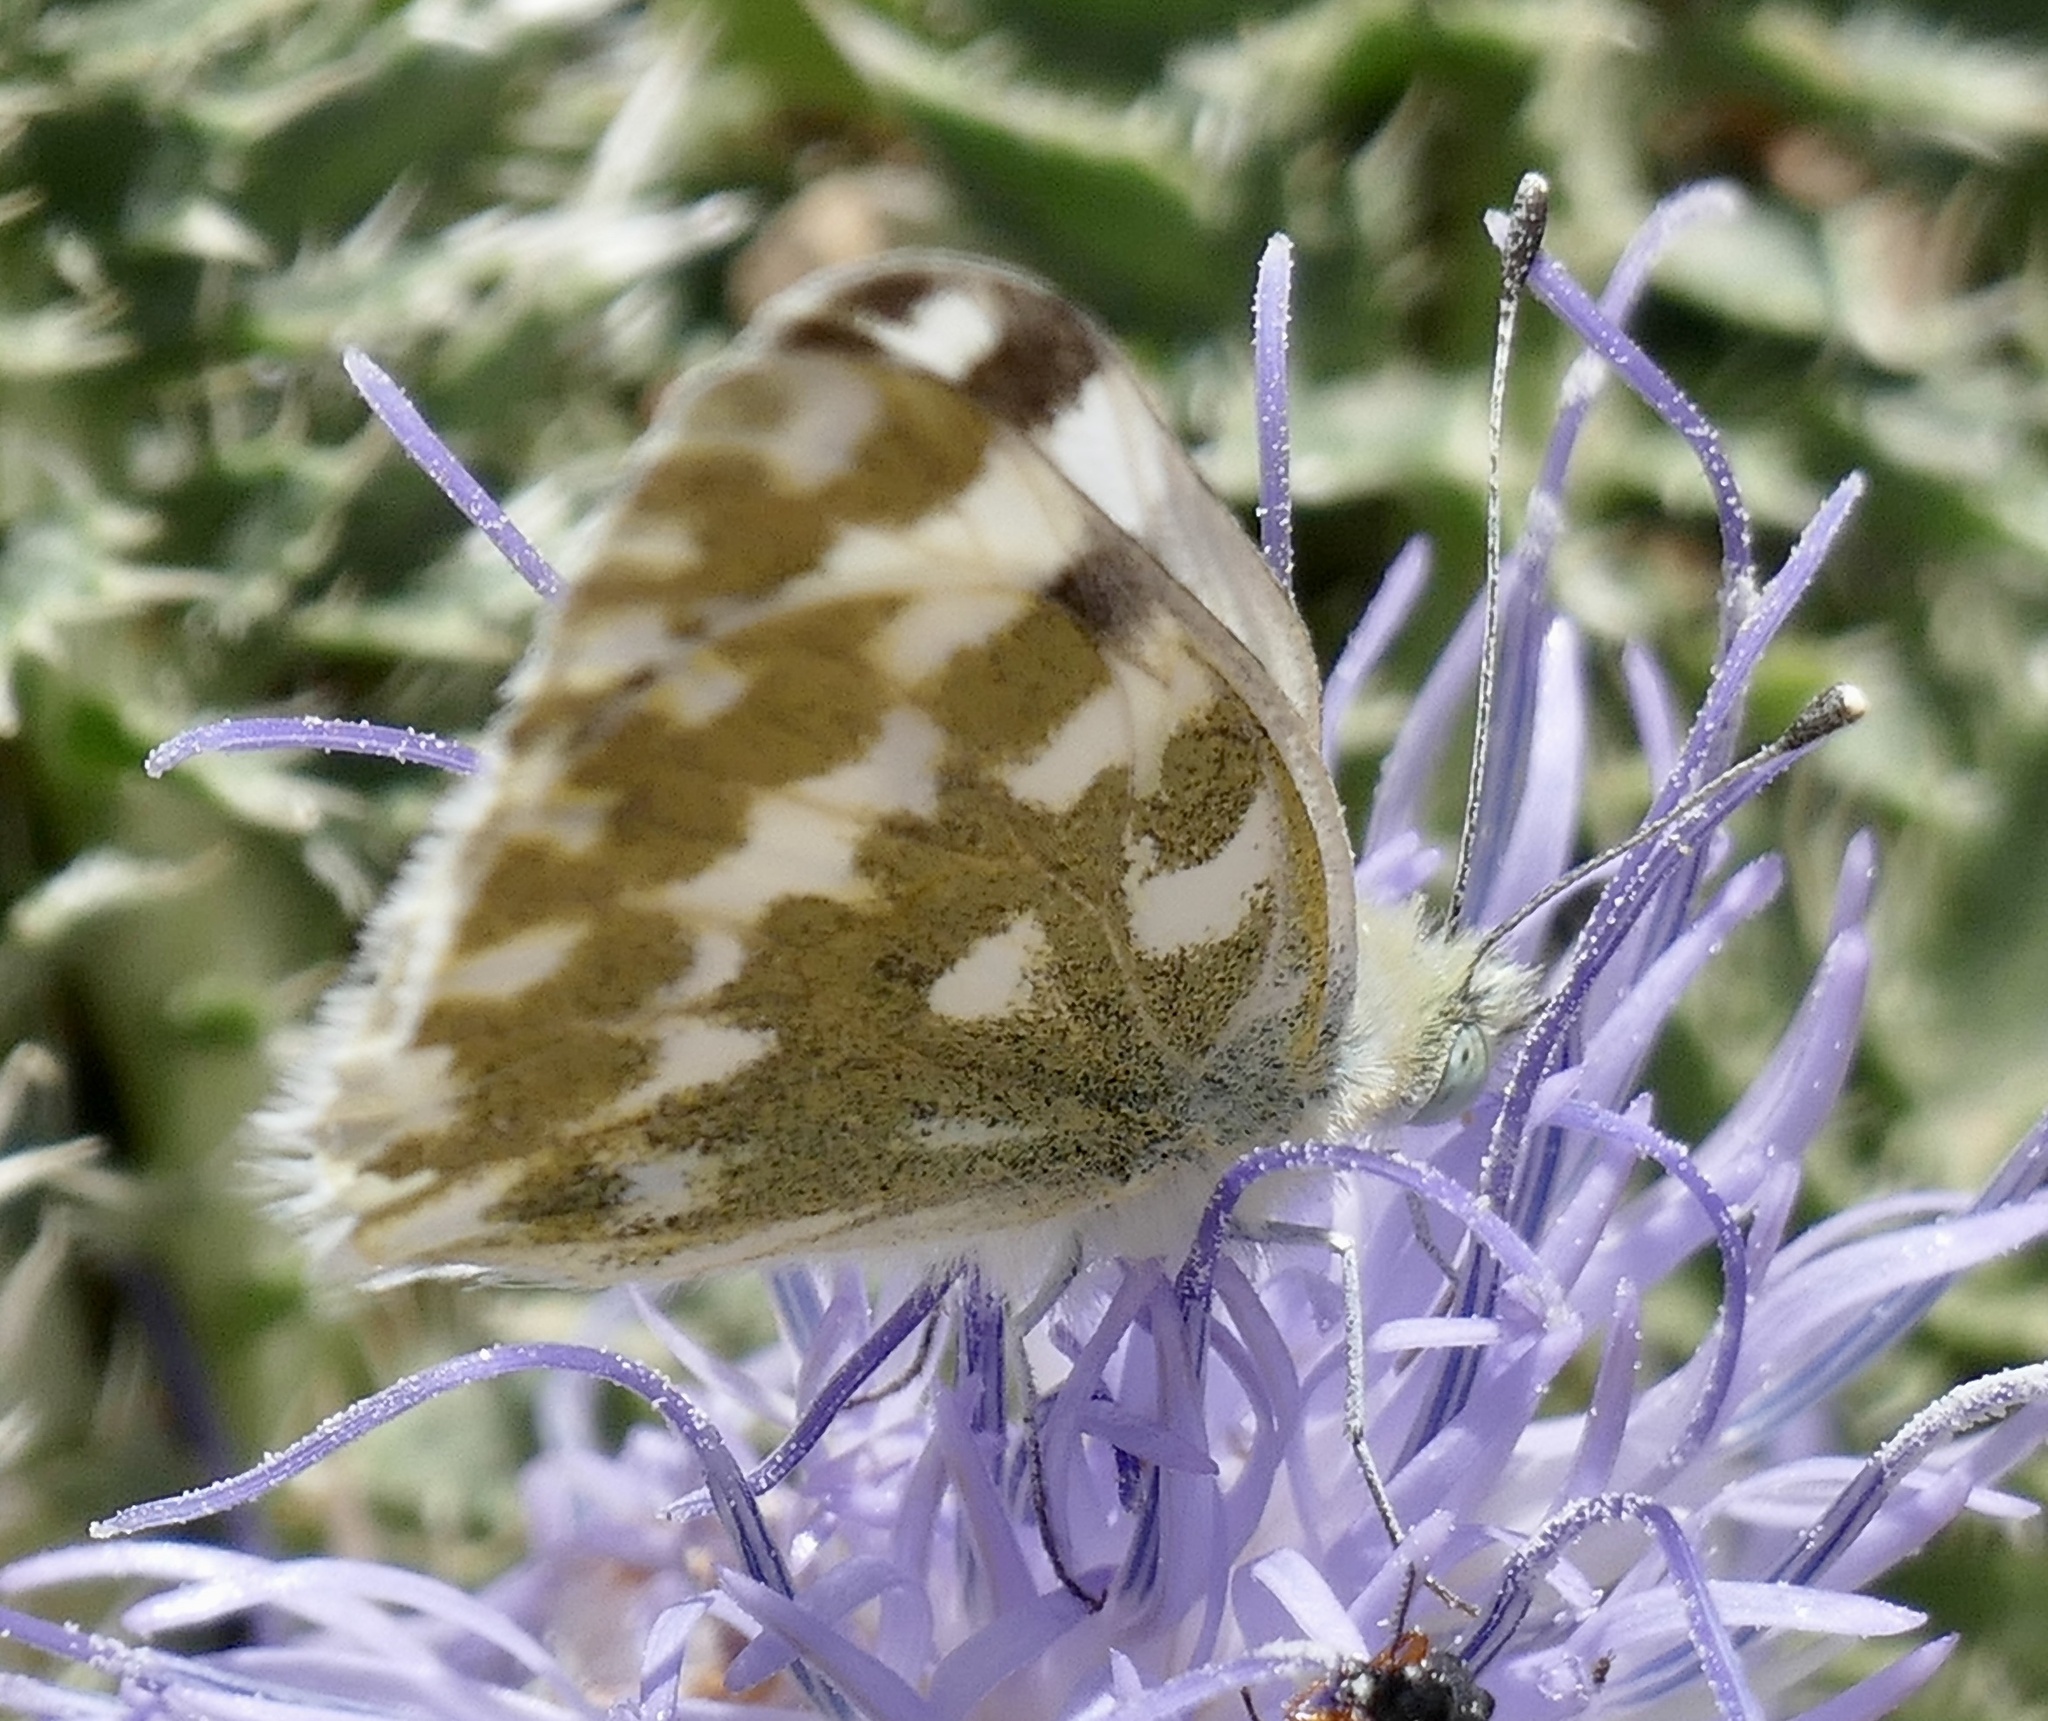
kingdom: Animalia
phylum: Arthropoda
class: Insecta
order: Lepidoptera
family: Pieridae
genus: Pontia
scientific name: Pontia daplidice
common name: Bath white
